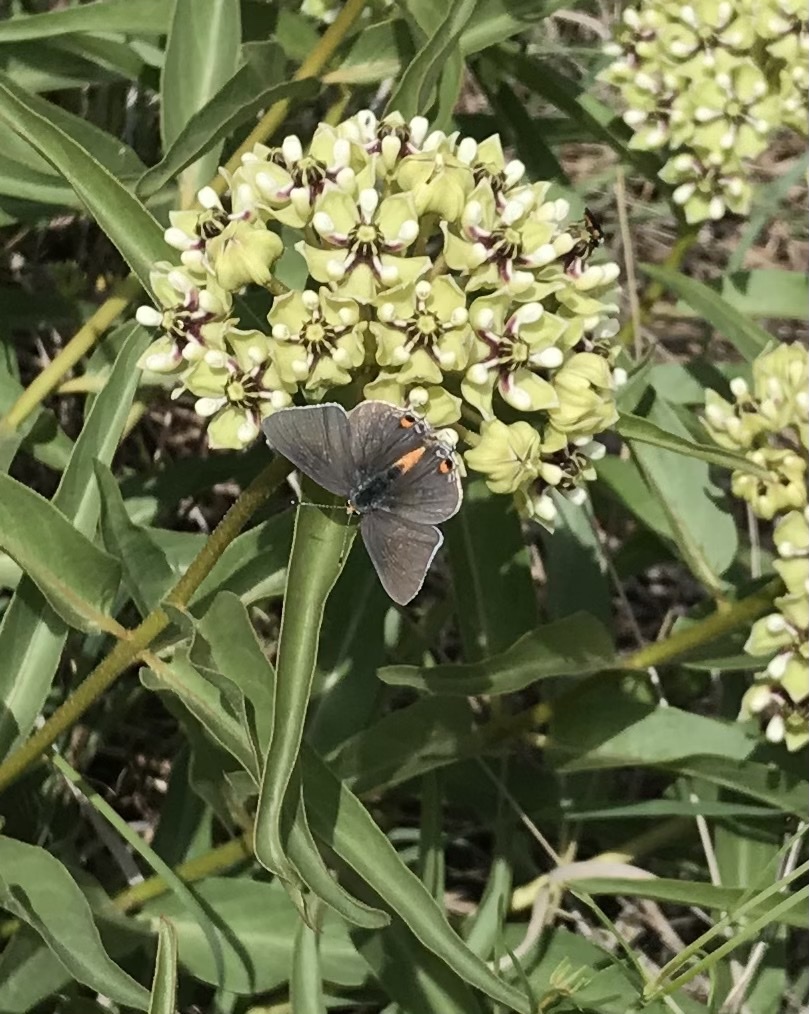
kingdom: Animalia
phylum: Arthropoda
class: Insecta
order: Lepidoptera
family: Lycaenidae
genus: Strymon
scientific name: Strymon melinus
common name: Gray hairstreak
